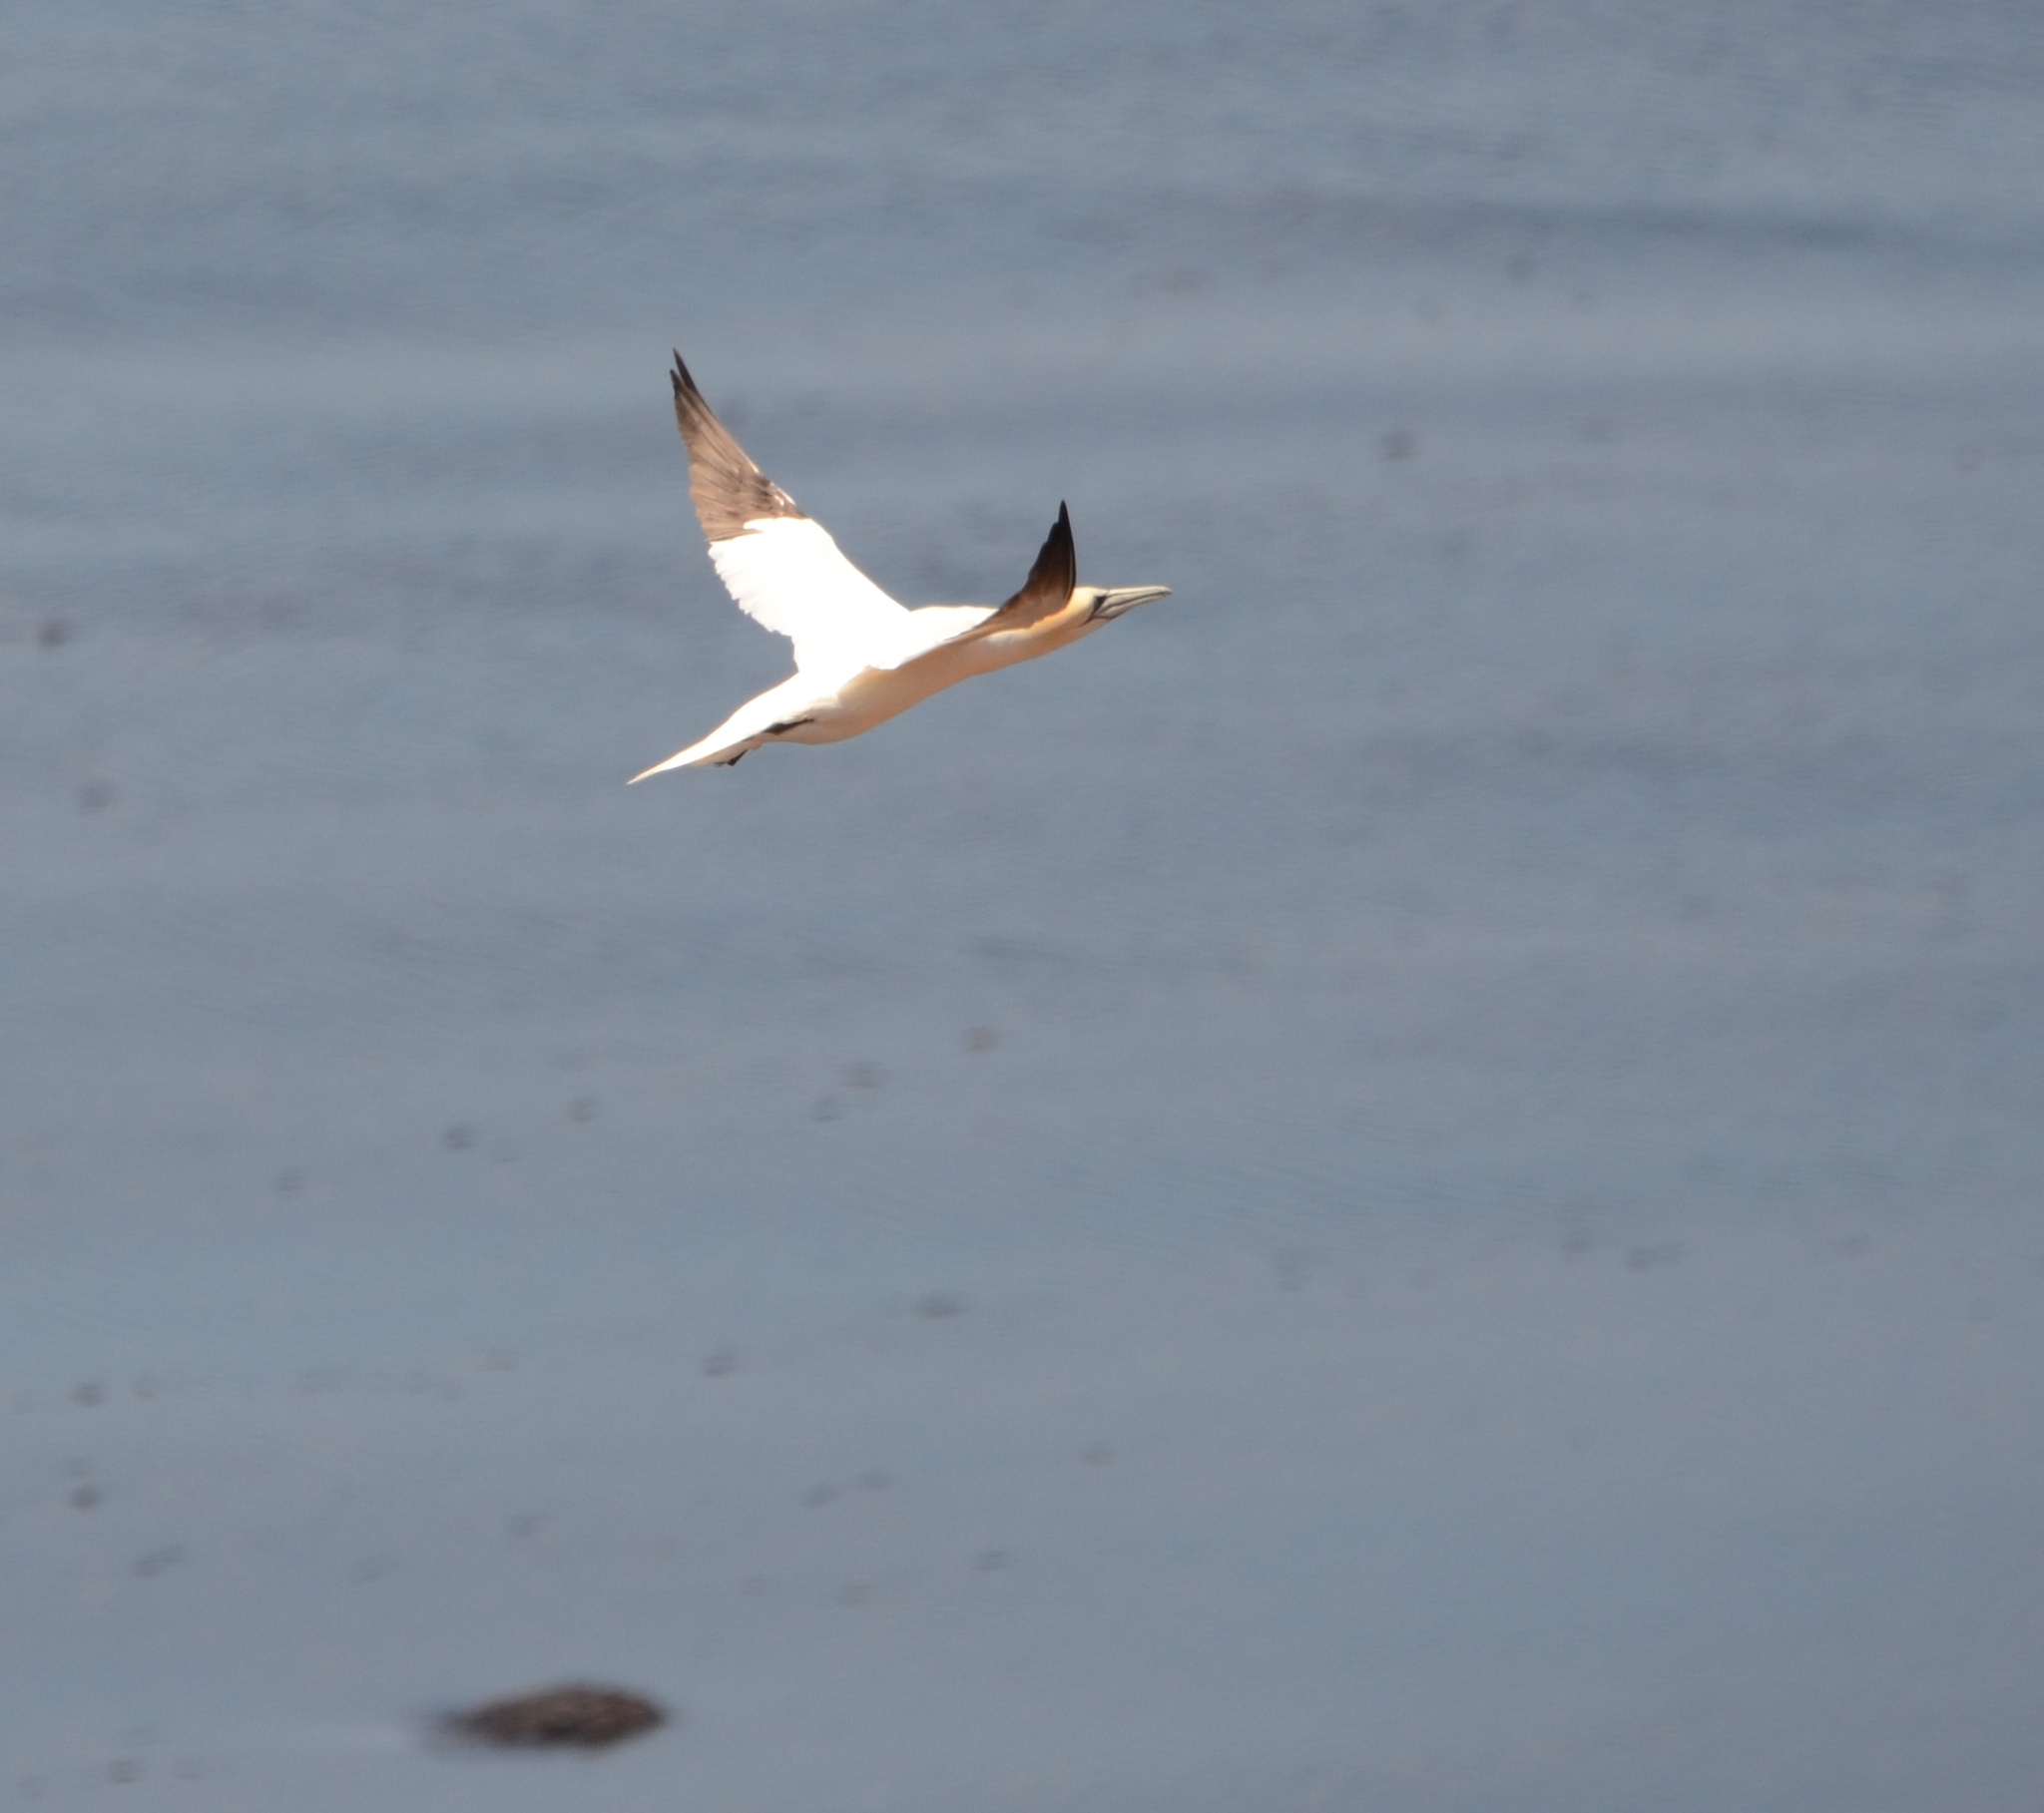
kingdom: Animalia
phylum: Chordata
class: Aves
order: Suliformes
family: Sulidae
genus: Morus
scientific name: Morus bassanus
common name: Northern gannet
